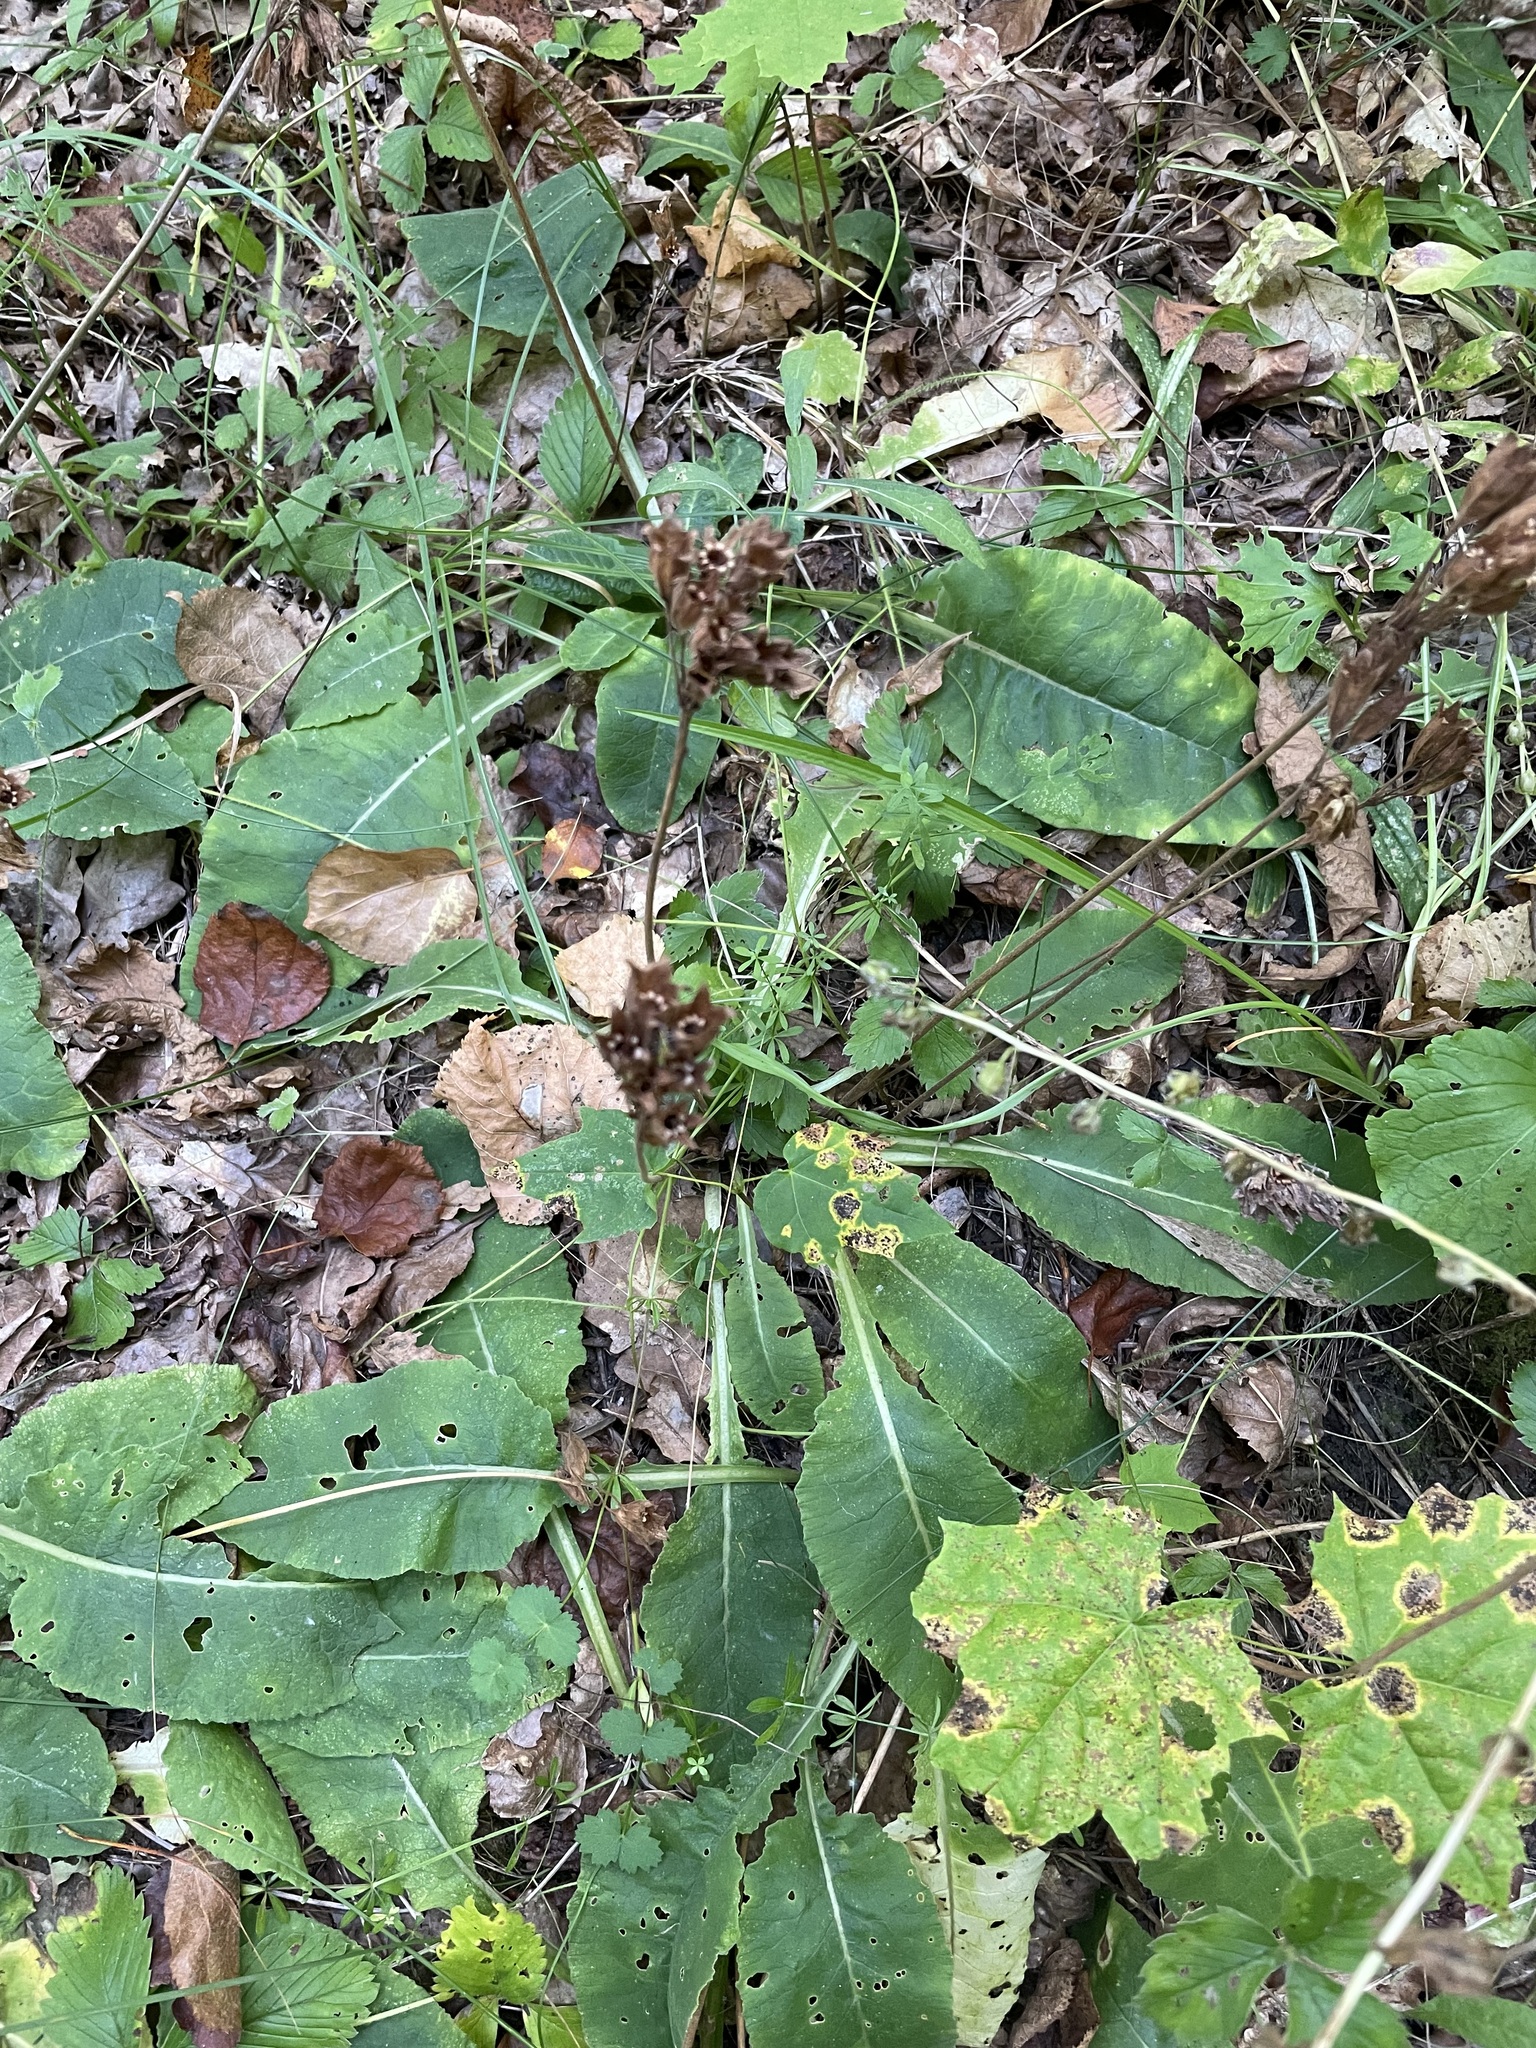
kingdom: Plantae
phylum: Tracheophyta
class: Magnoliopsida
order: Ericales
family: Primulaceae
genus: Primula
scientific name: Primula veris
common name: Cowslip
